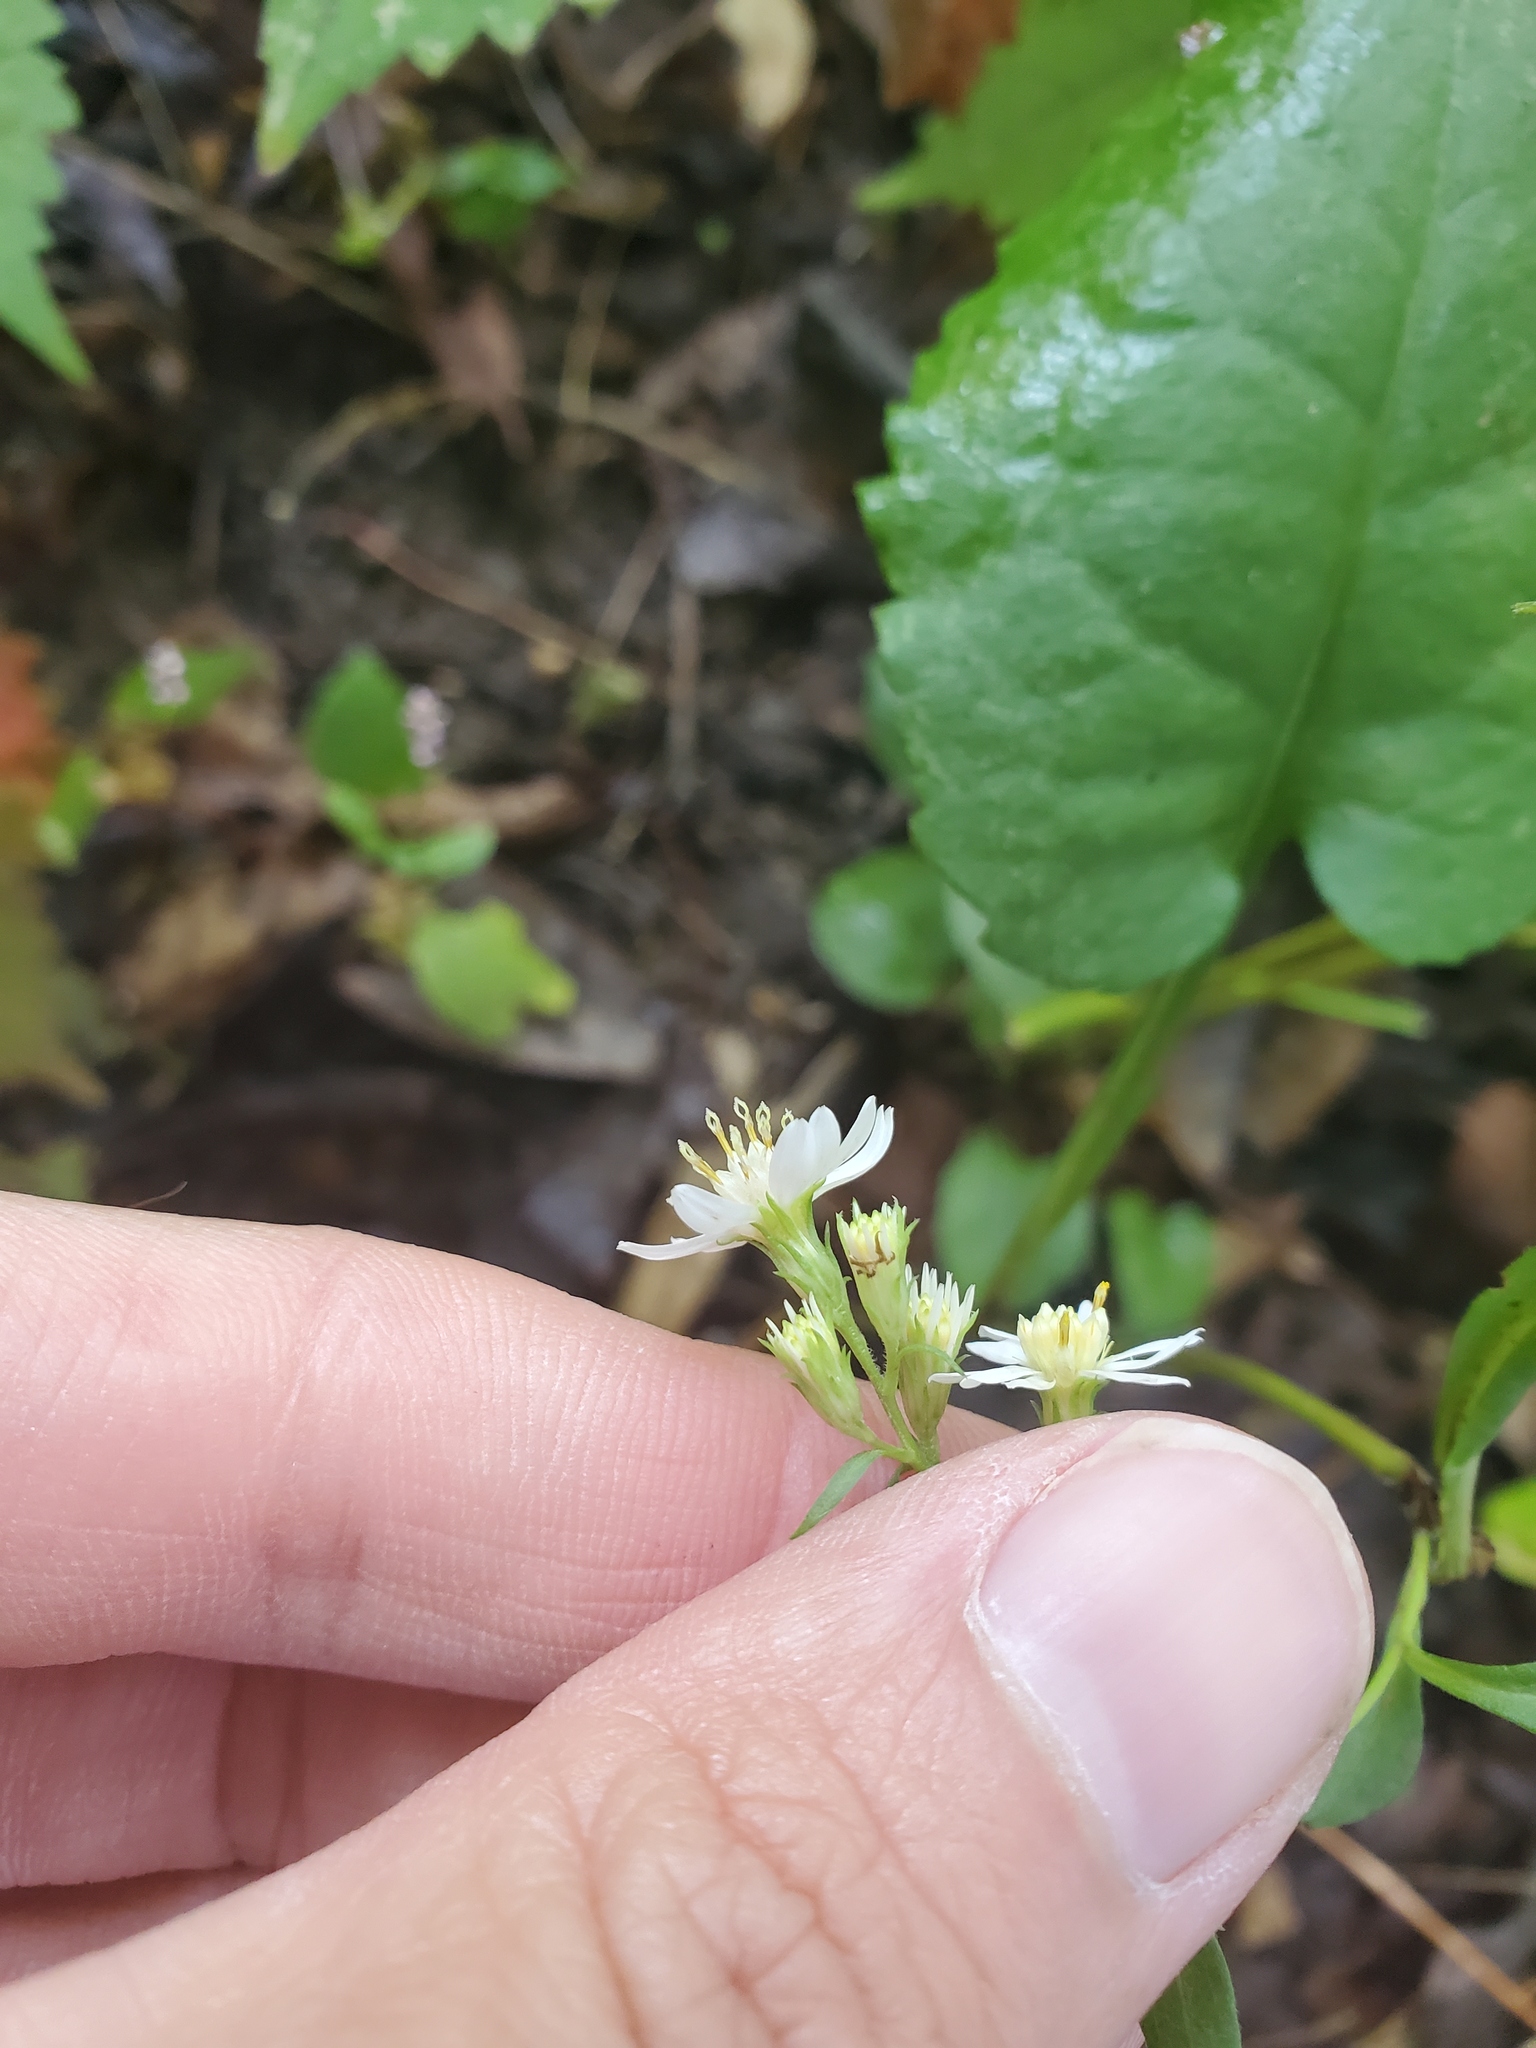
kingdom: Plantae
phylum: Tracheophyta
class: Magnoliopsida
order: Asterales
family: Asteraceae
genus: Symphyotrichum
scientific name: Symphyotrichum urophyllum
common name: Arrow-leaved aster
